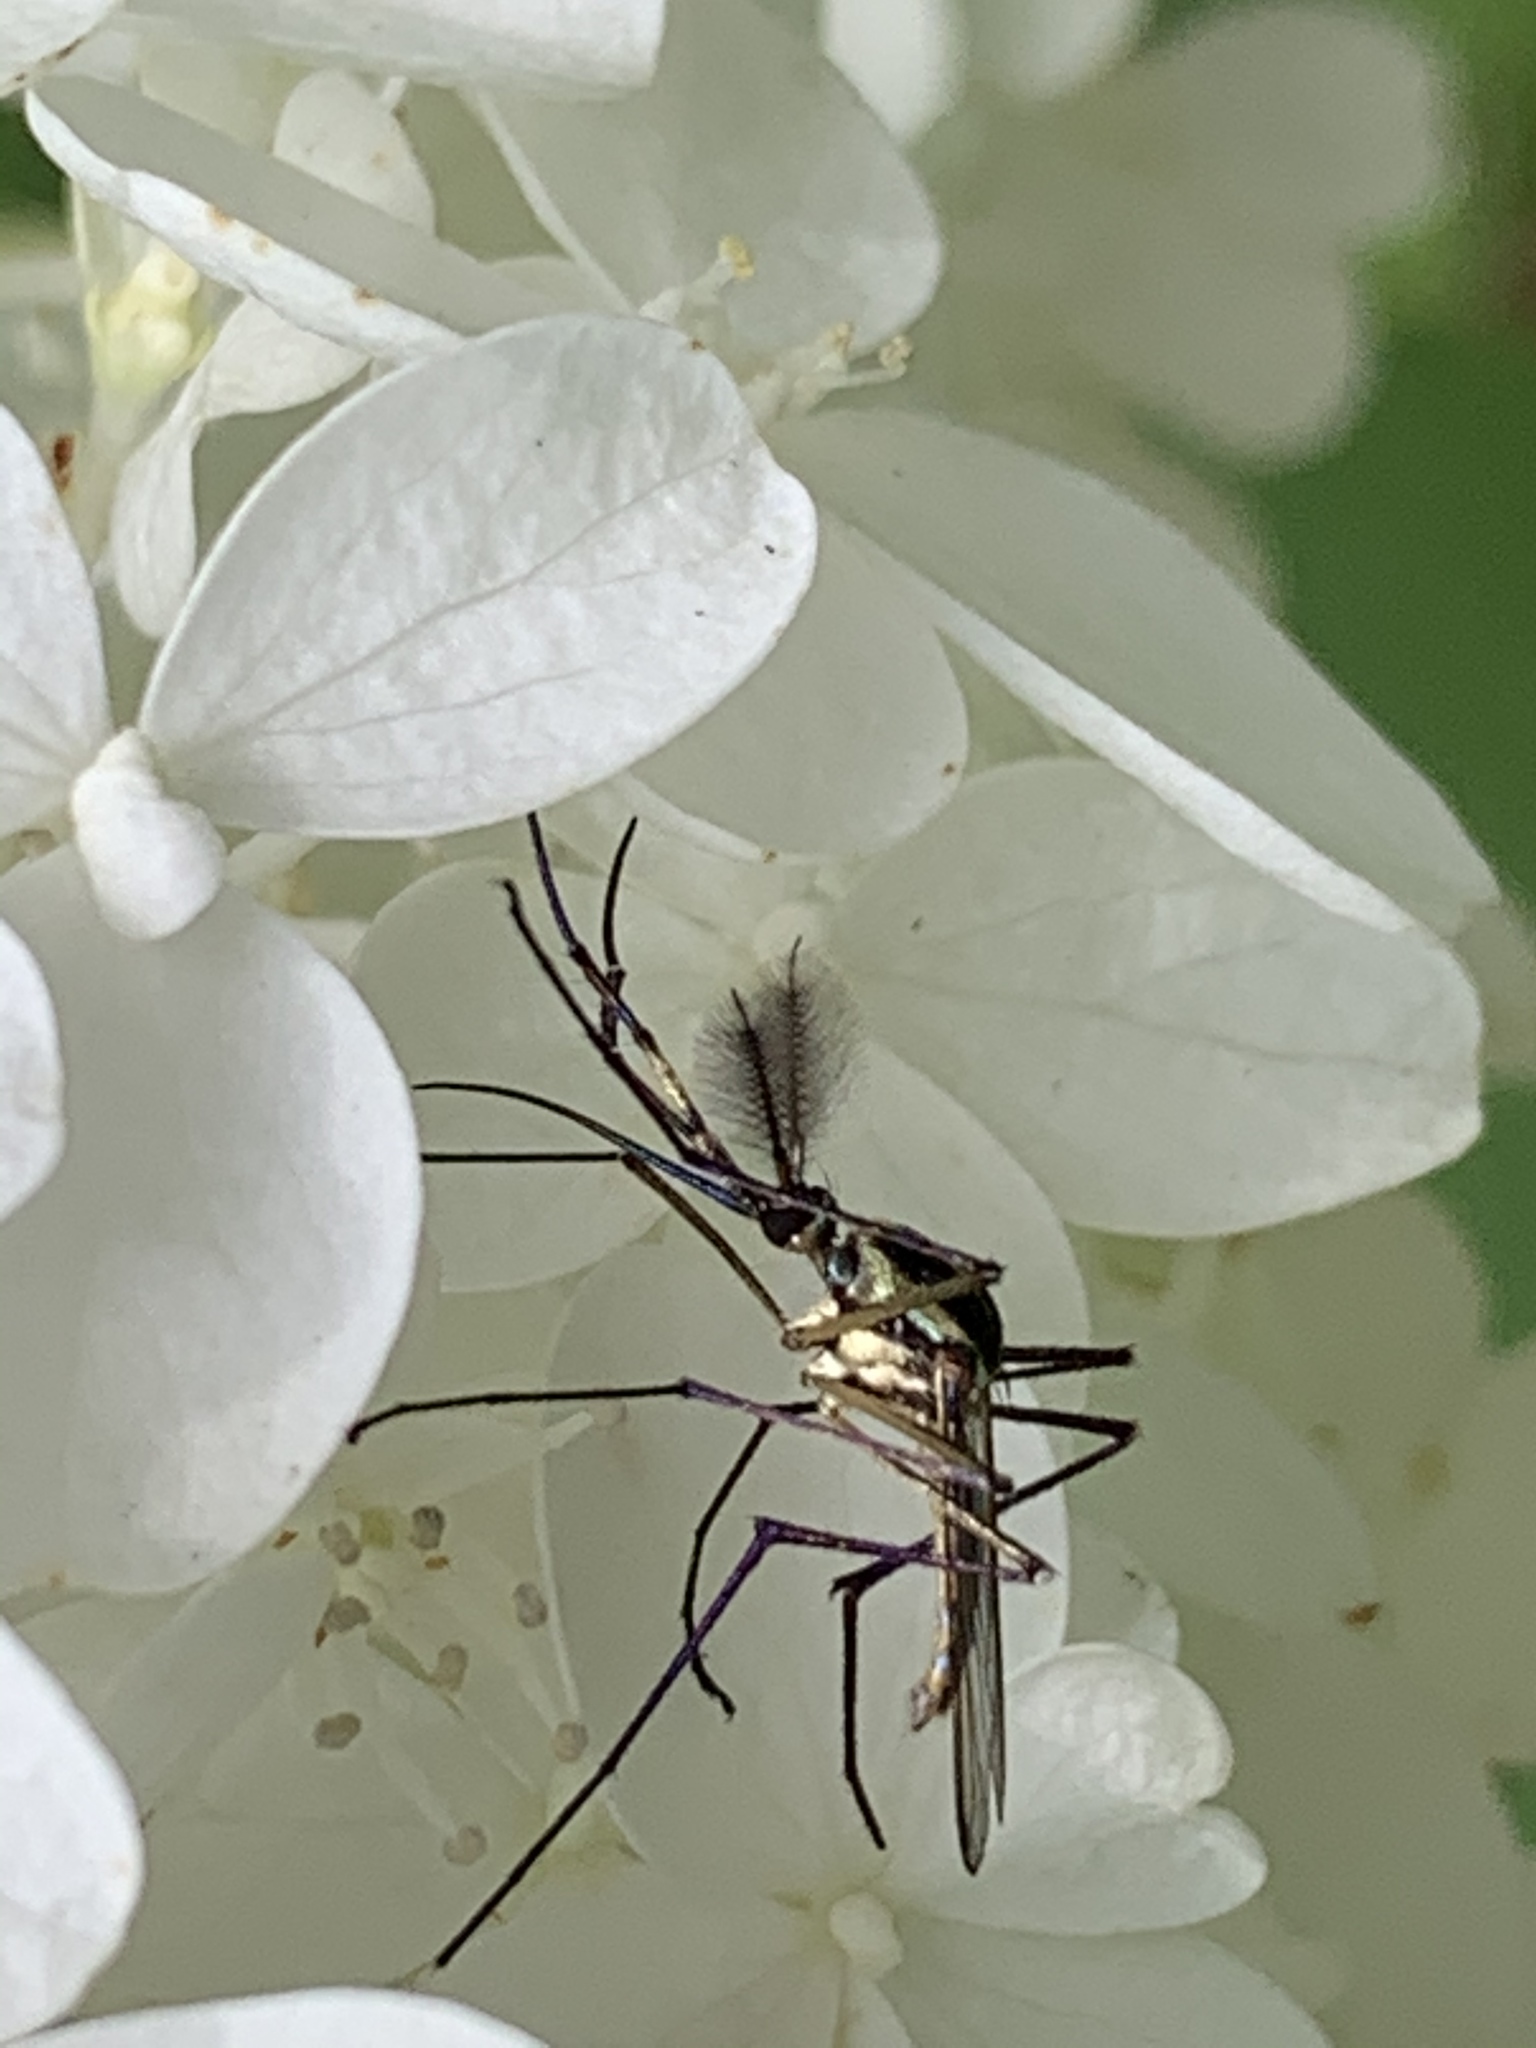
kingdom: Animalia
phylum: Arthropoda
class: Insecta
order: Diptera
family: Culicidae
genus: Toxorhynchites
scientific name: Toxorhynchites rutilus
